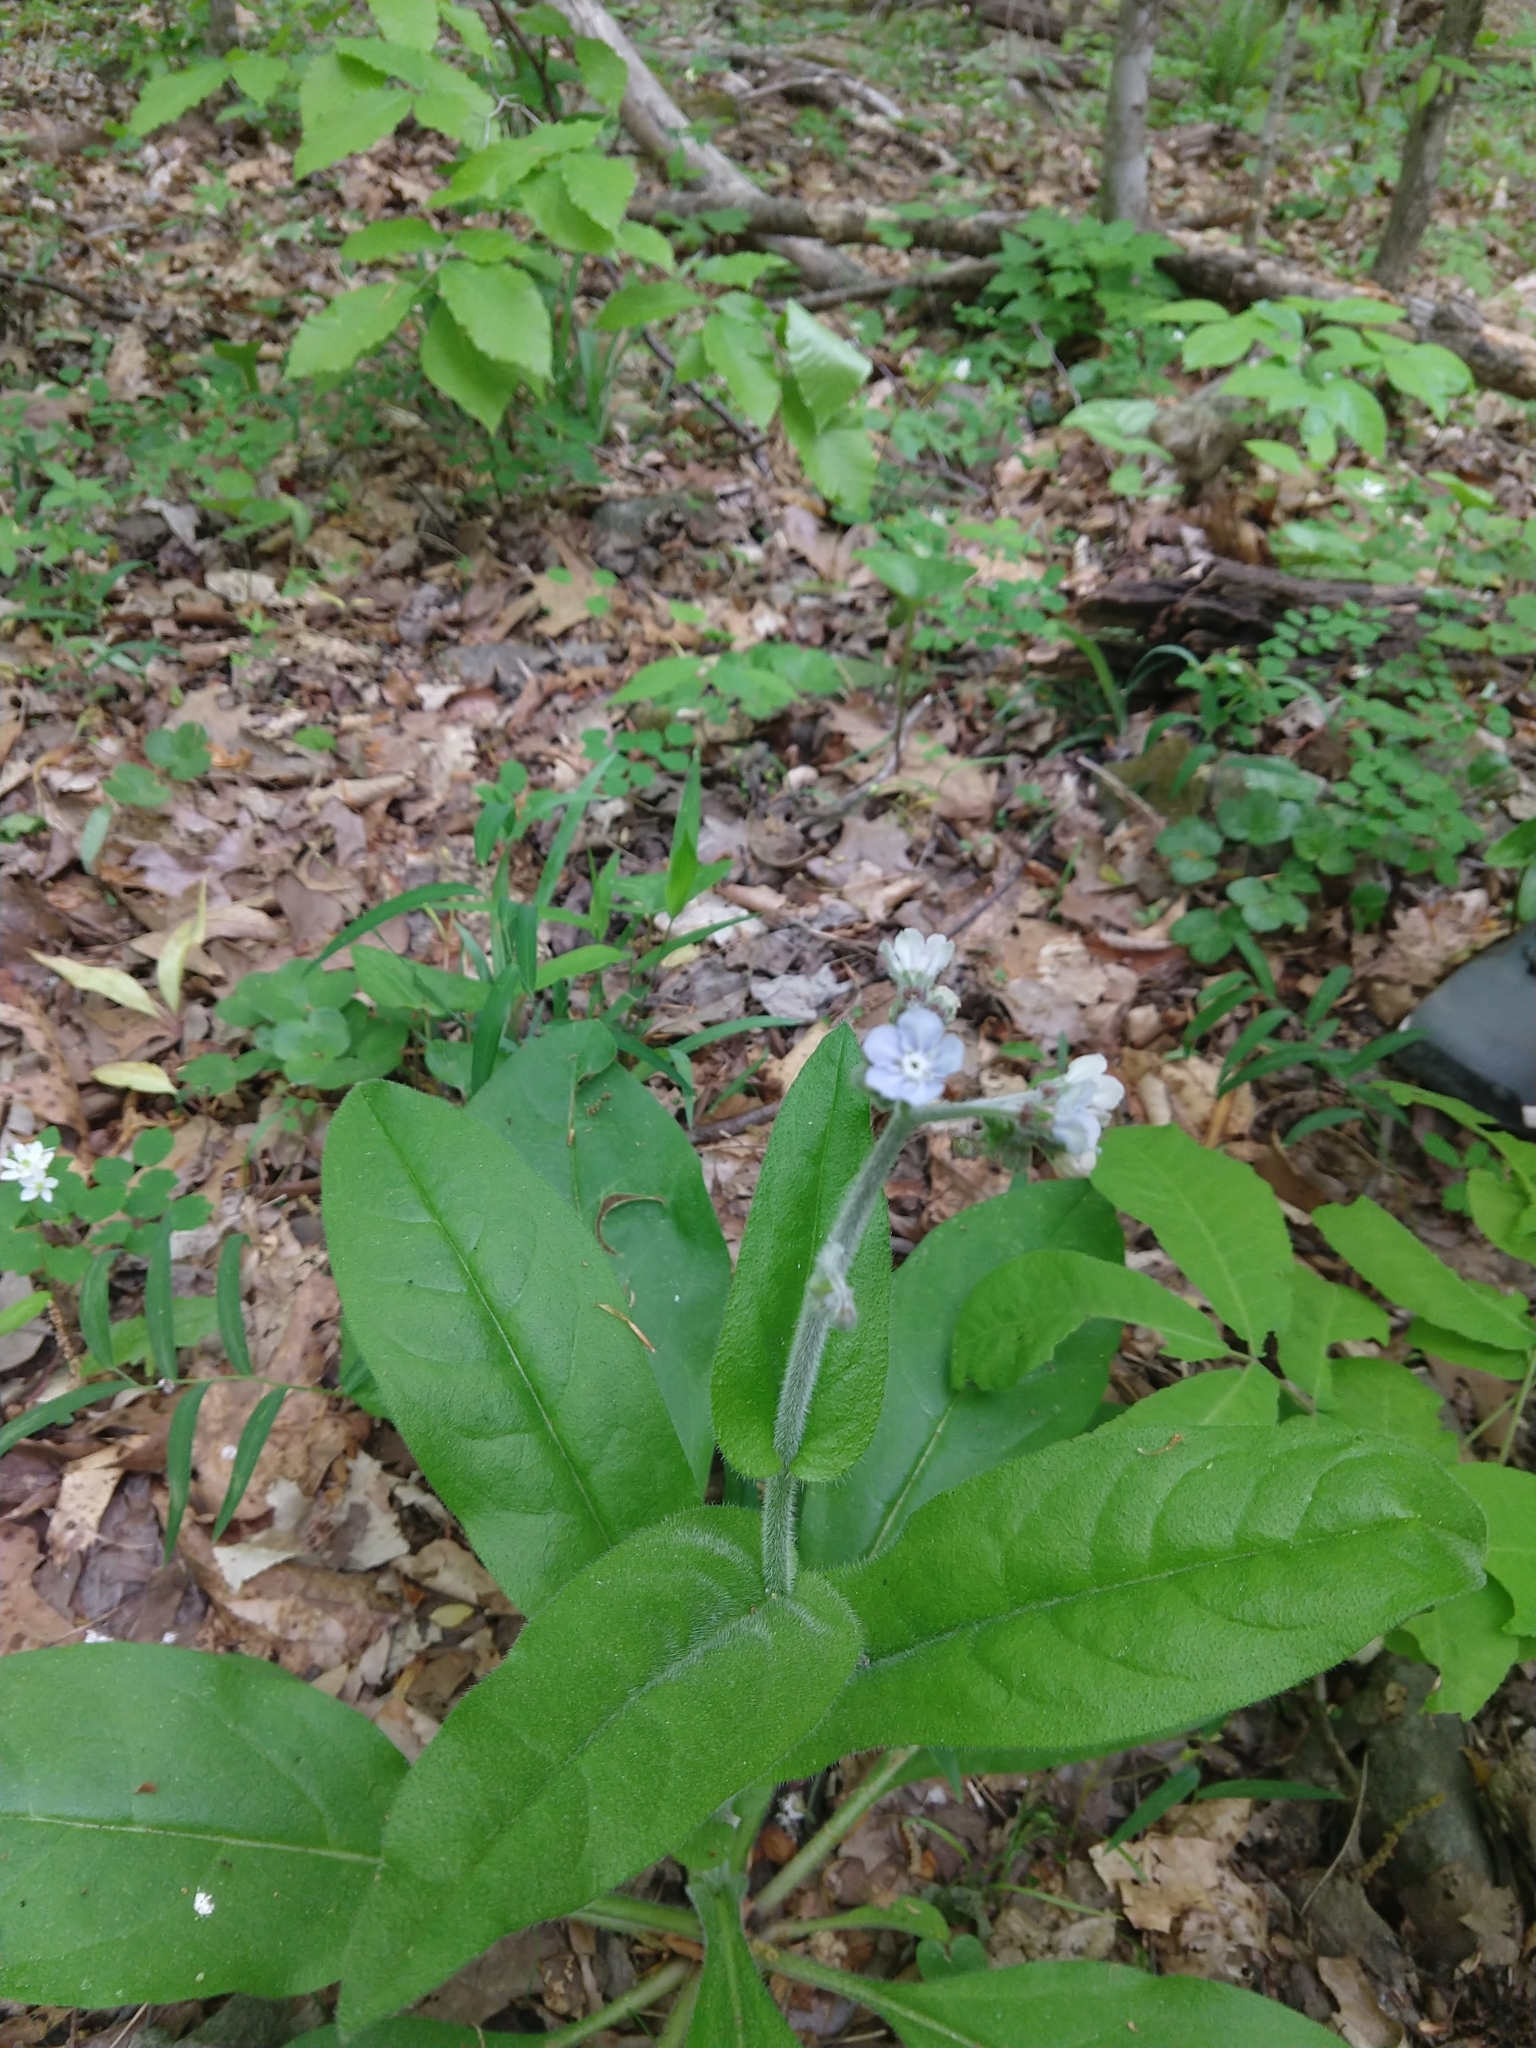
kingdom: Plantae
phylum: Tracheophyta
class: Magnoliopsida
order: Boraginales
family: Boraginaceae
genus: Andersonglossum
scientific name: Andersonglossum virginianum
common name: Wild comfrey
